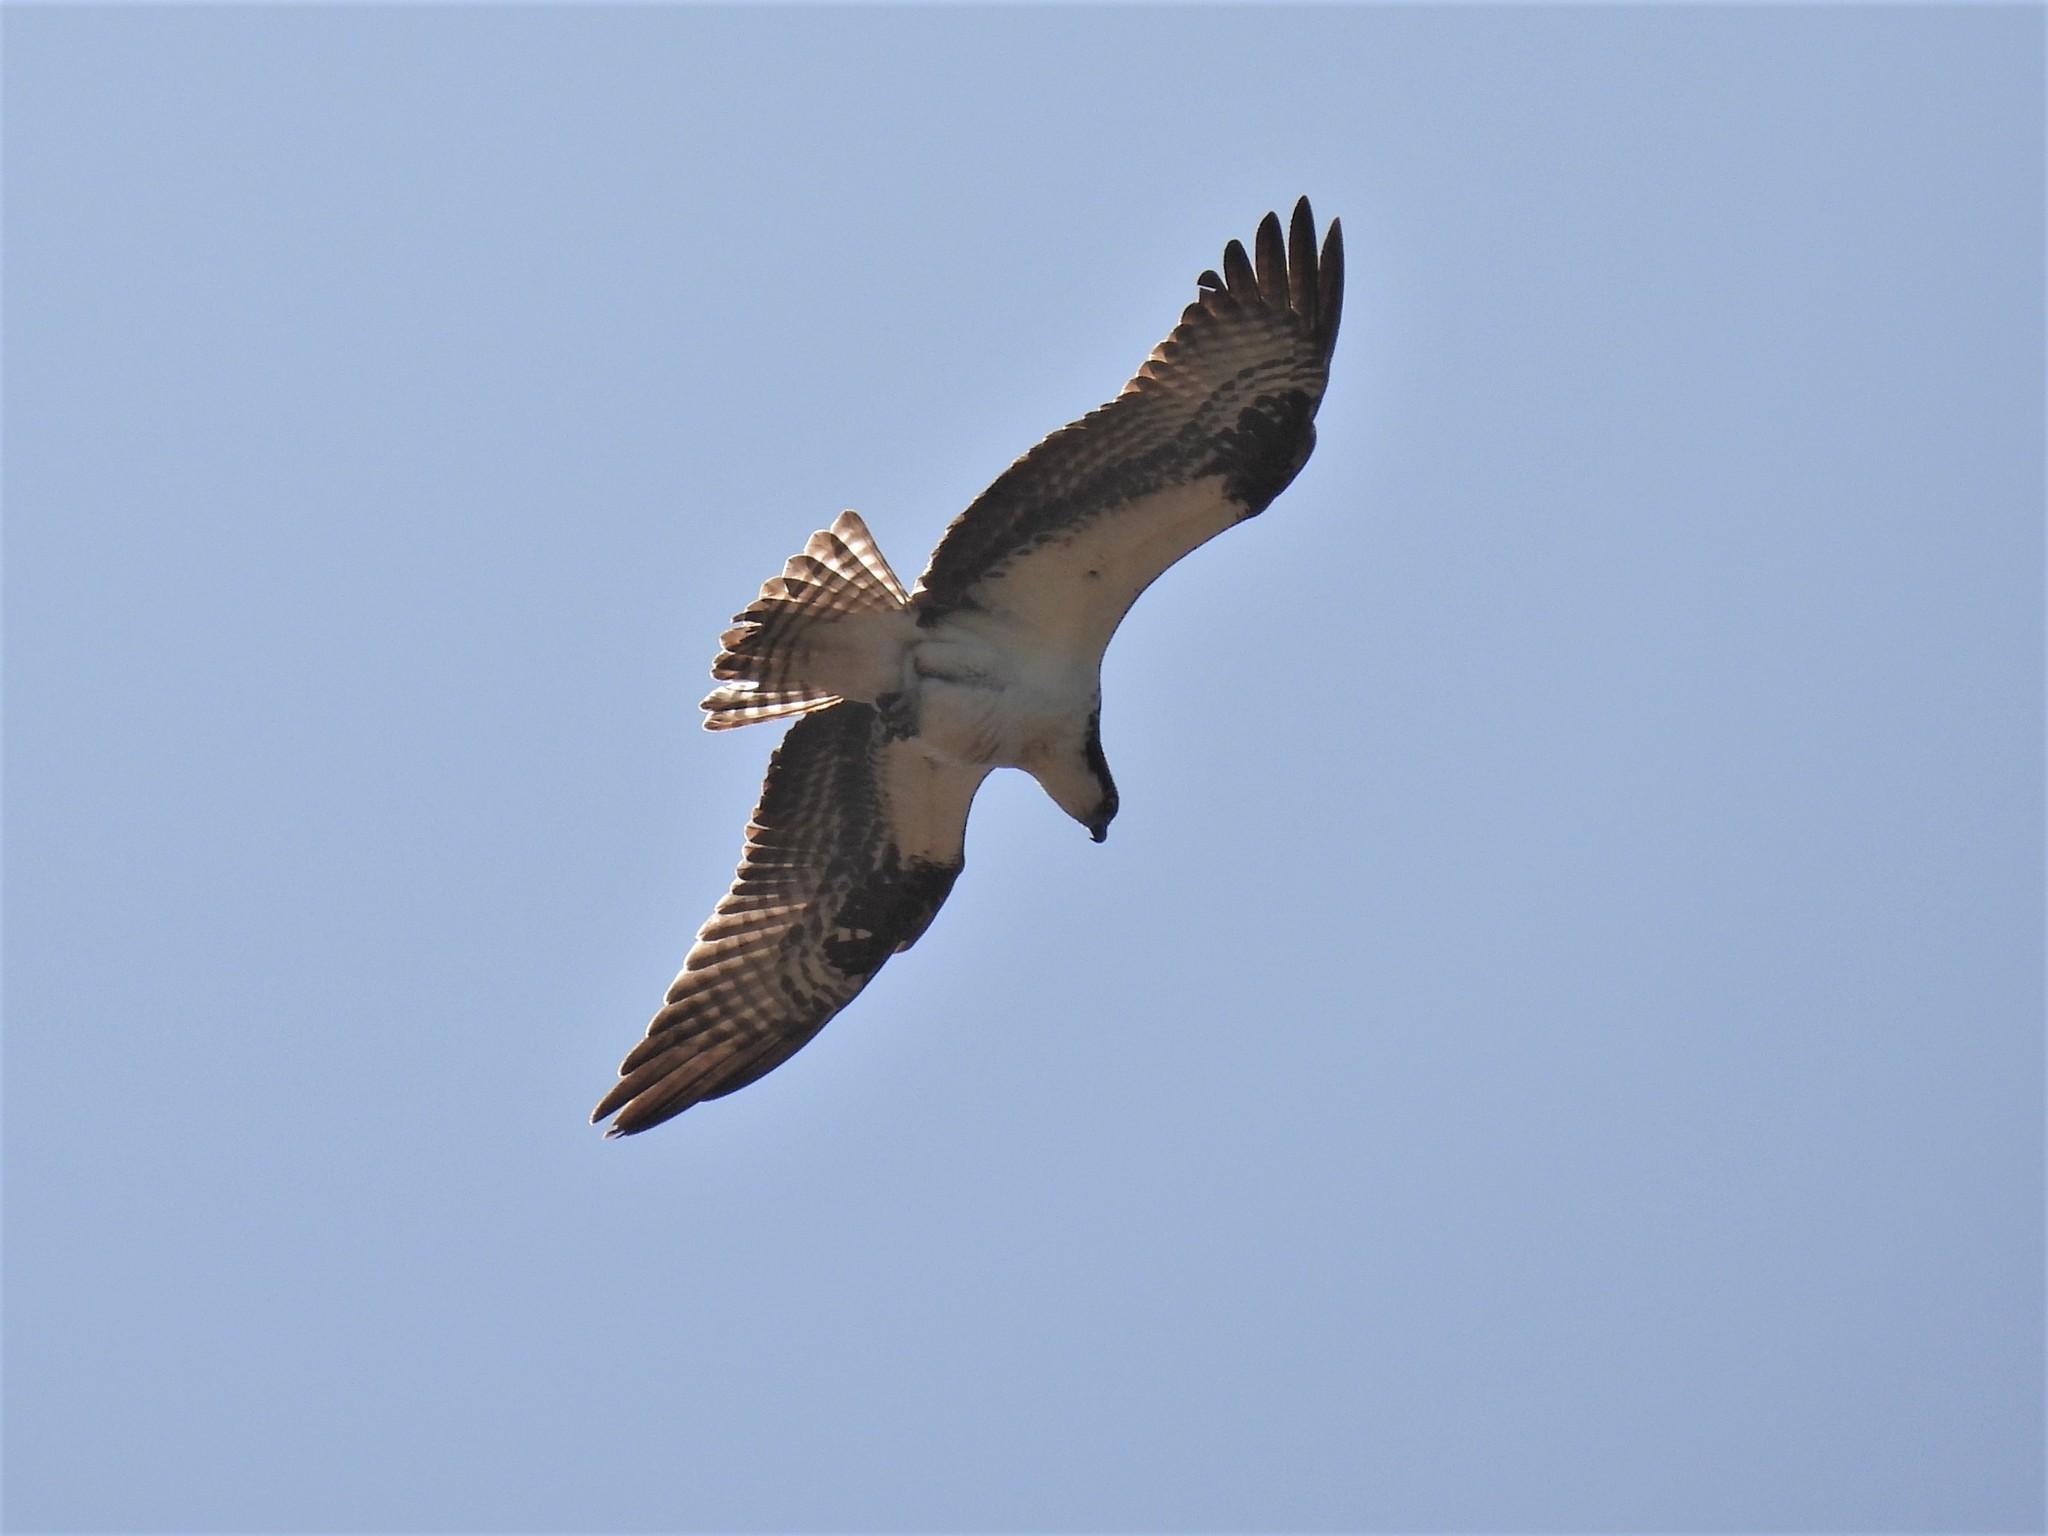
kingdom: Animalia
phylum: Chordata
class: Aves
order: Accipitriformes
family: Pandionidae
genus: Pandion
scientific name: Pandion haliaetus
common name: Osprey
